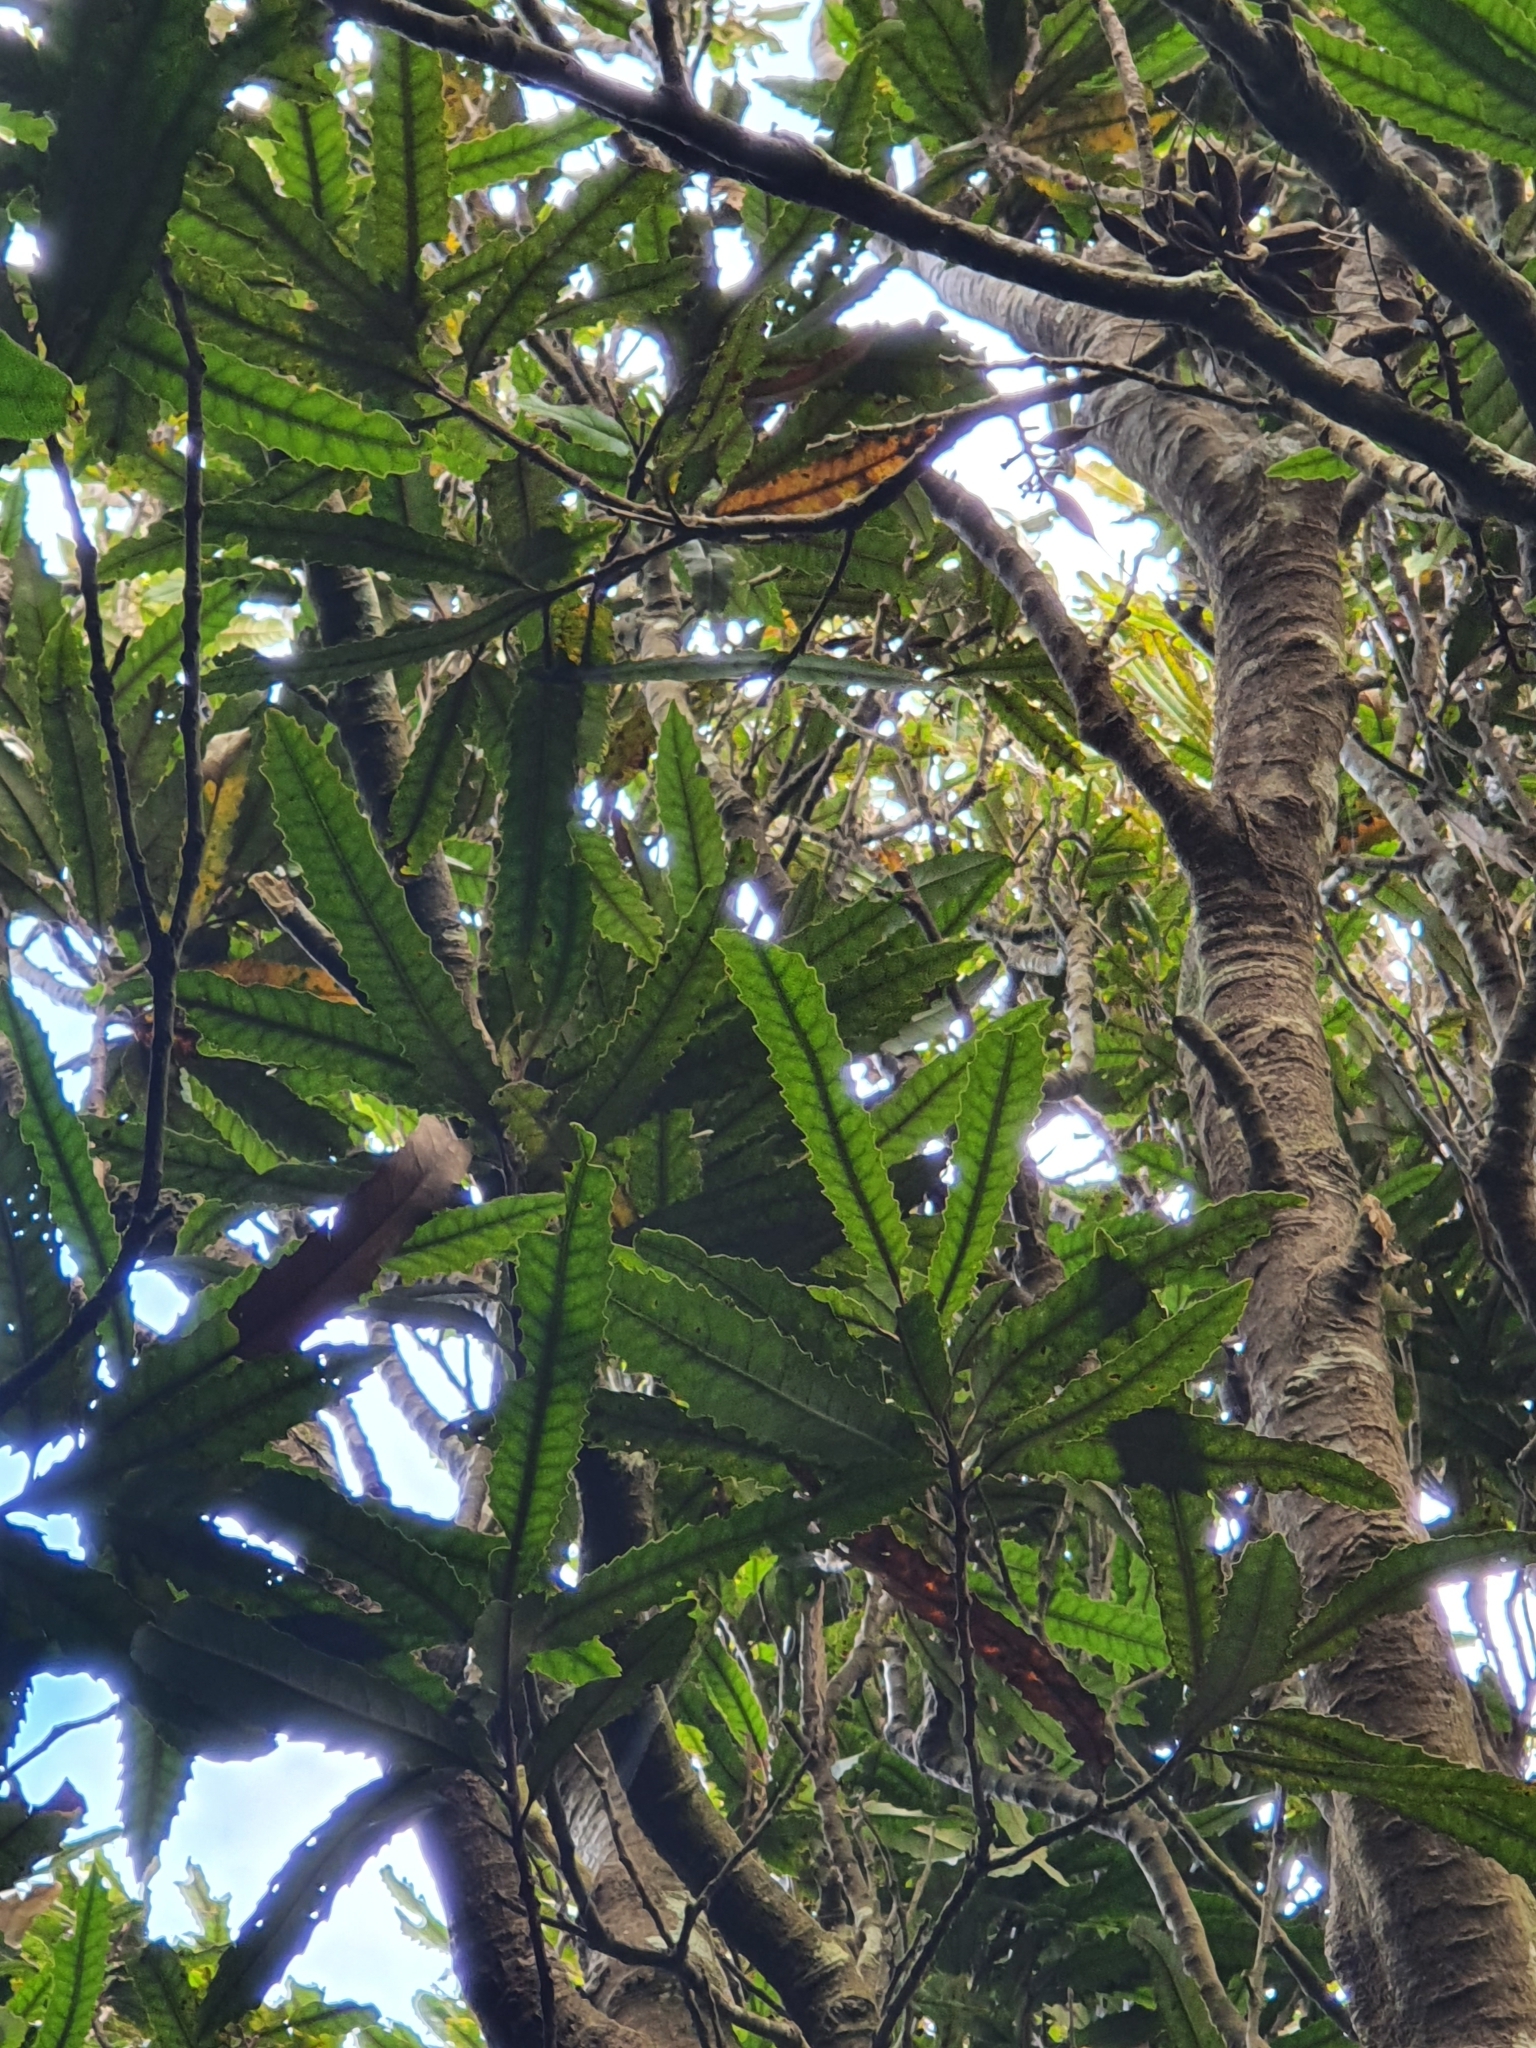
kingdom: Plantae
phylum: Tracheophyta
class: Magnoliopsida
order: Proteales
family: Proteaceae
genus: Knightia
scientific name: Knightia excelsa
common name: New zealand-honeysuckle
